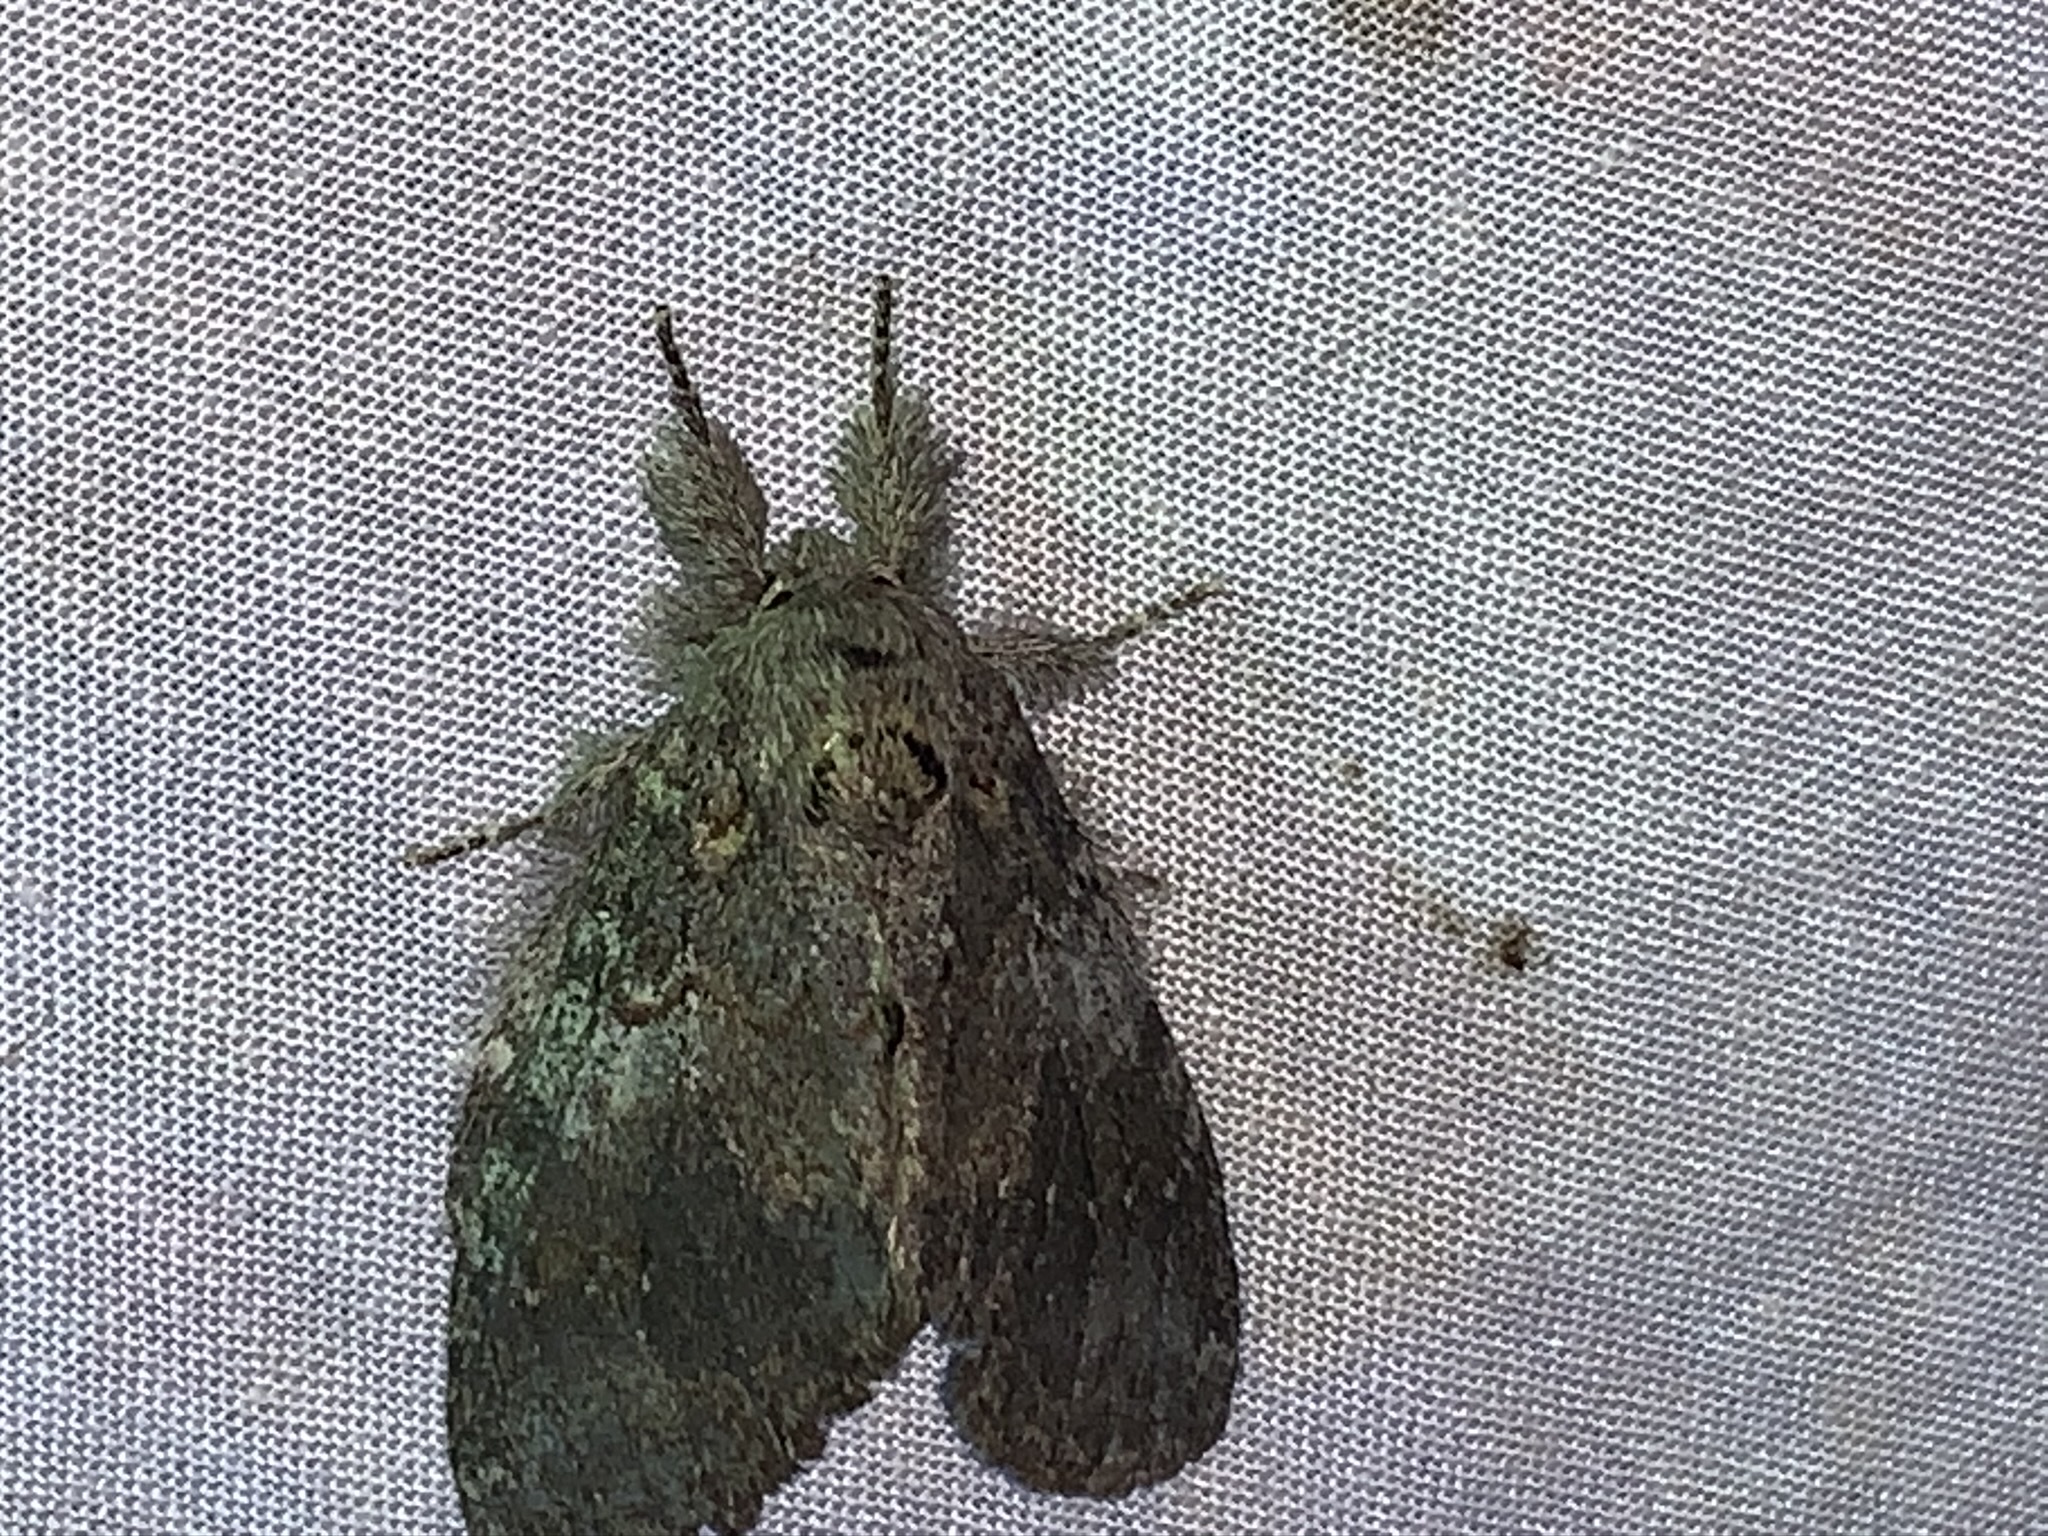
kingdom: Animalia
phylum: Arthropoda
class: Insecta
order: Lepidoptera
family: Notodontidae
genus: Peridea
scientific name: Peridea angulosa
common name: Angulose prominent
